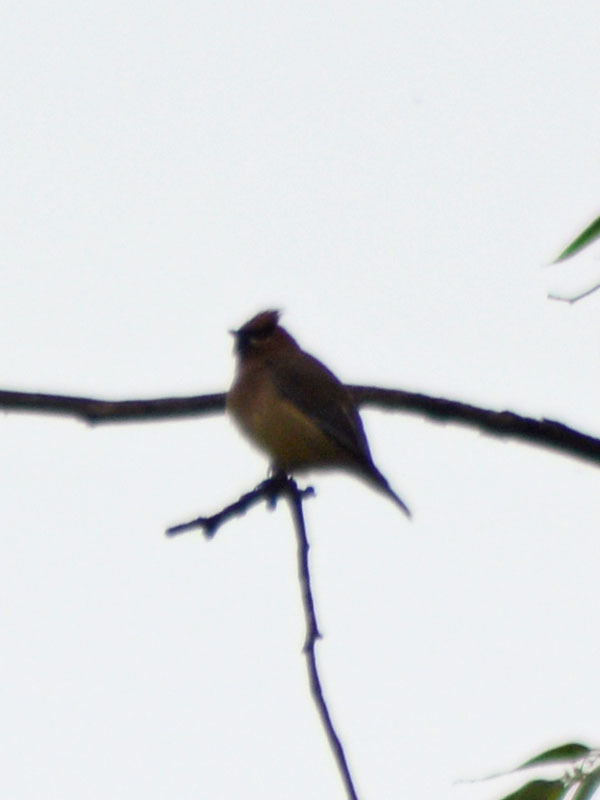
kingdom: Animalia
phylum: Chordata
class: Aves
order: Passeriformes
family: Bombycillidae
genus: Bombycilla
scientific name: Bombycilla cedrorum
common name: Cedar waxwing
